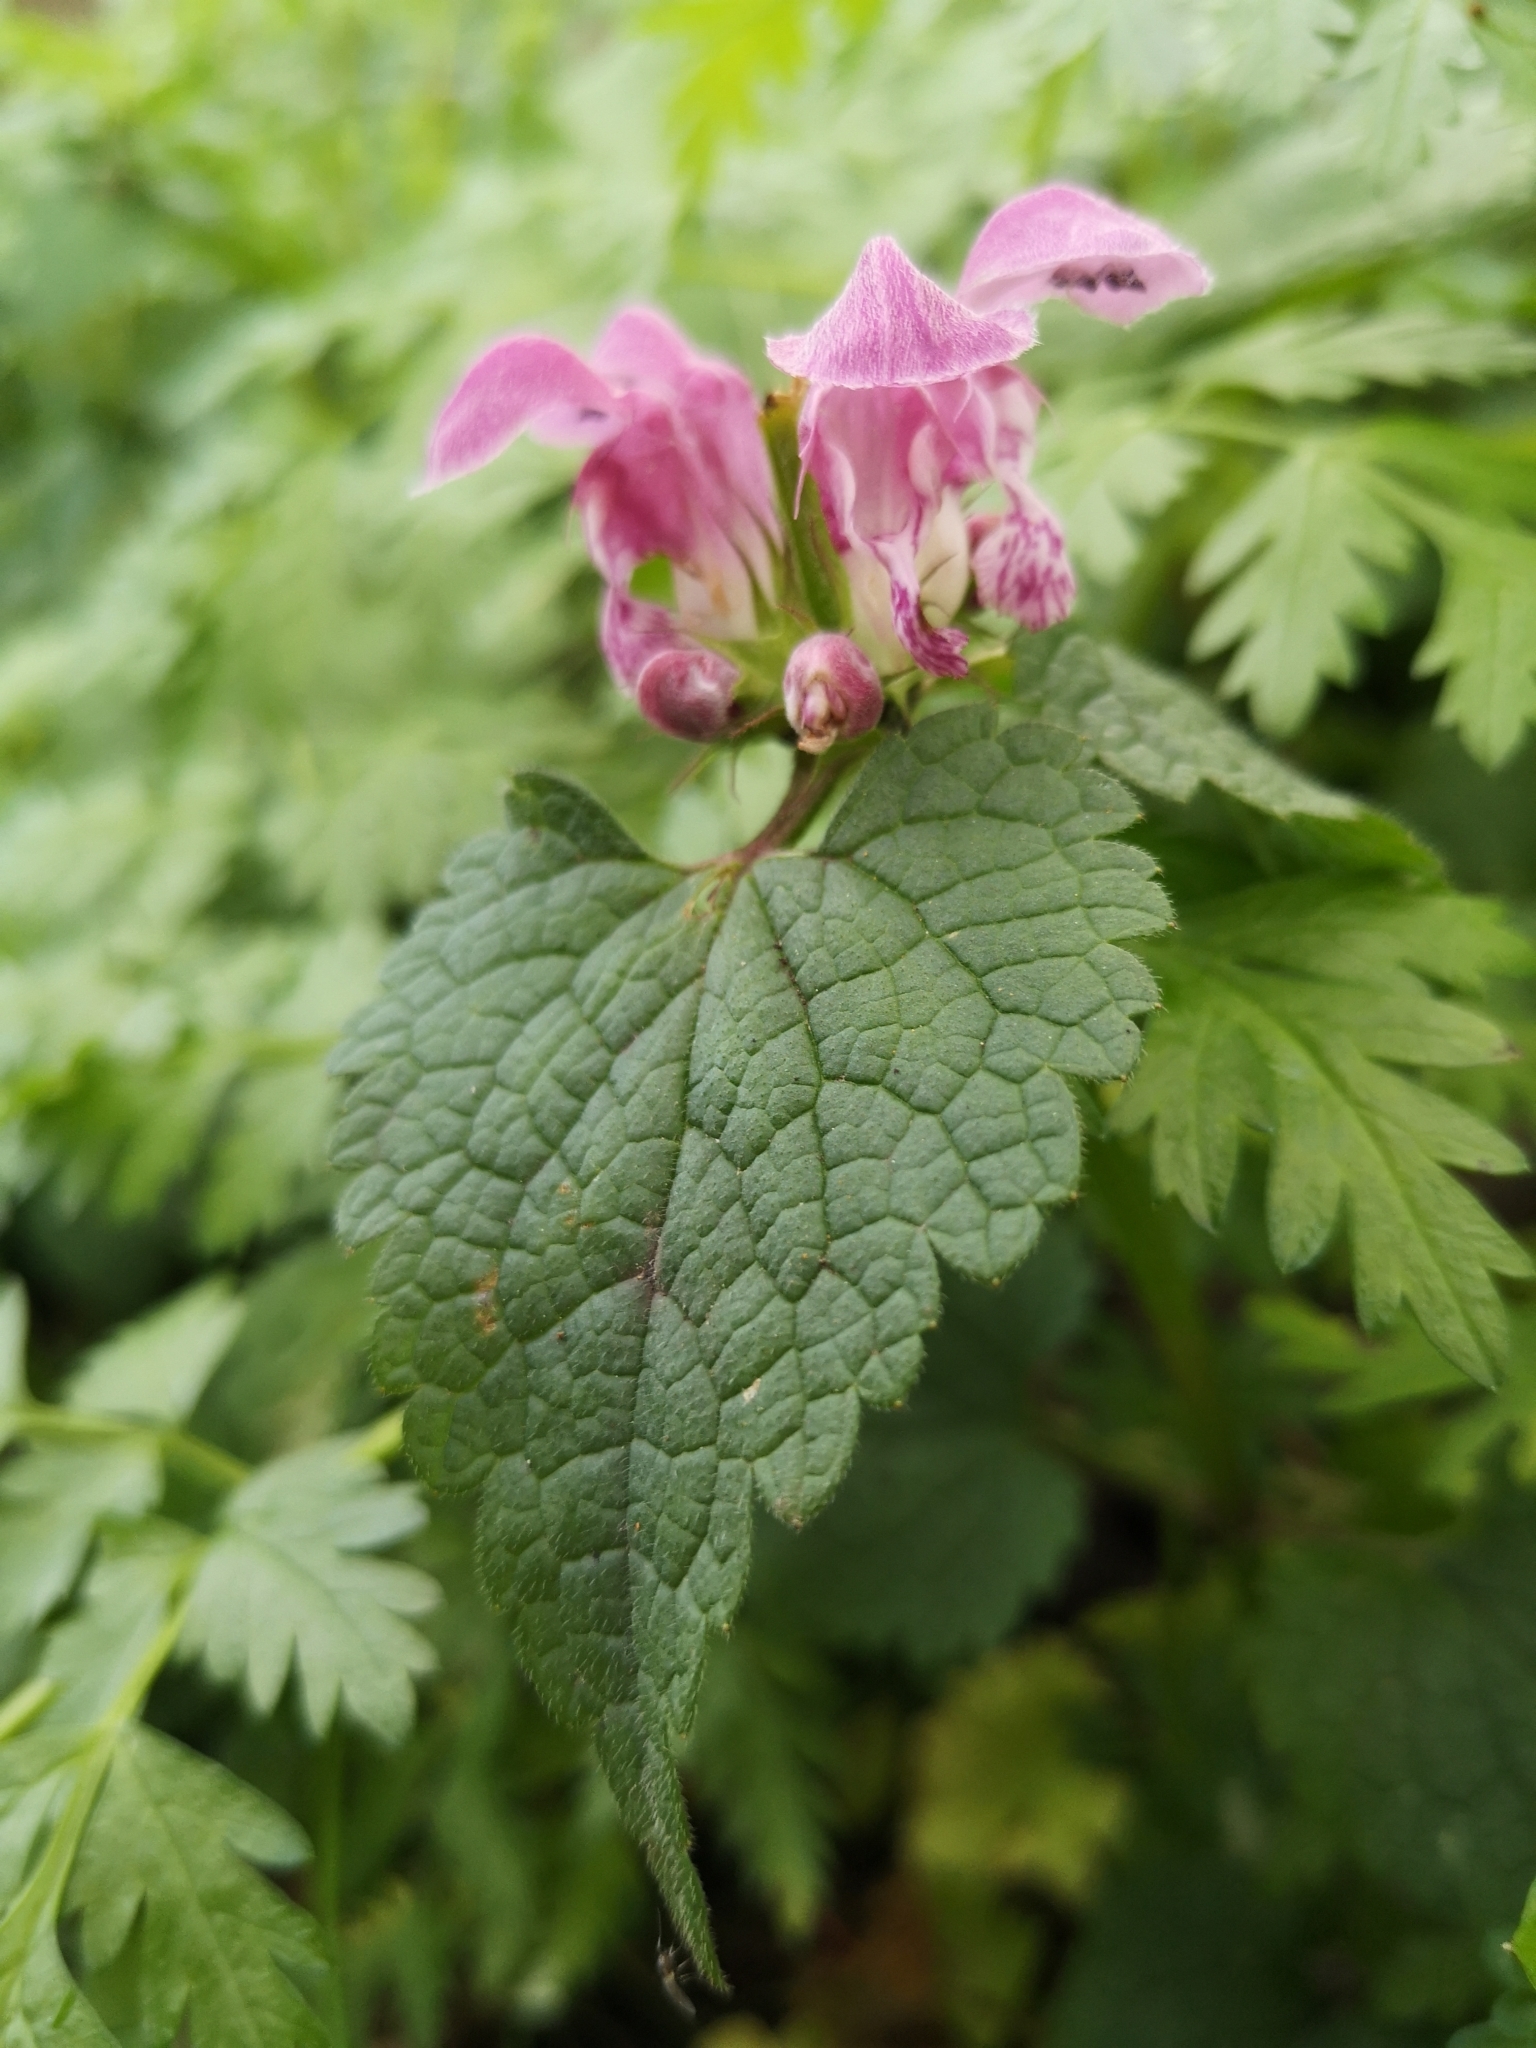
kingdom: Plantae
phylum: Tracheophyta
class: Magnoliopsida
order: Lamiales
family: Lamiaceae
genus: Lamium
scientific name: Lamium maculatum
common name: Spotted dead-nettle
